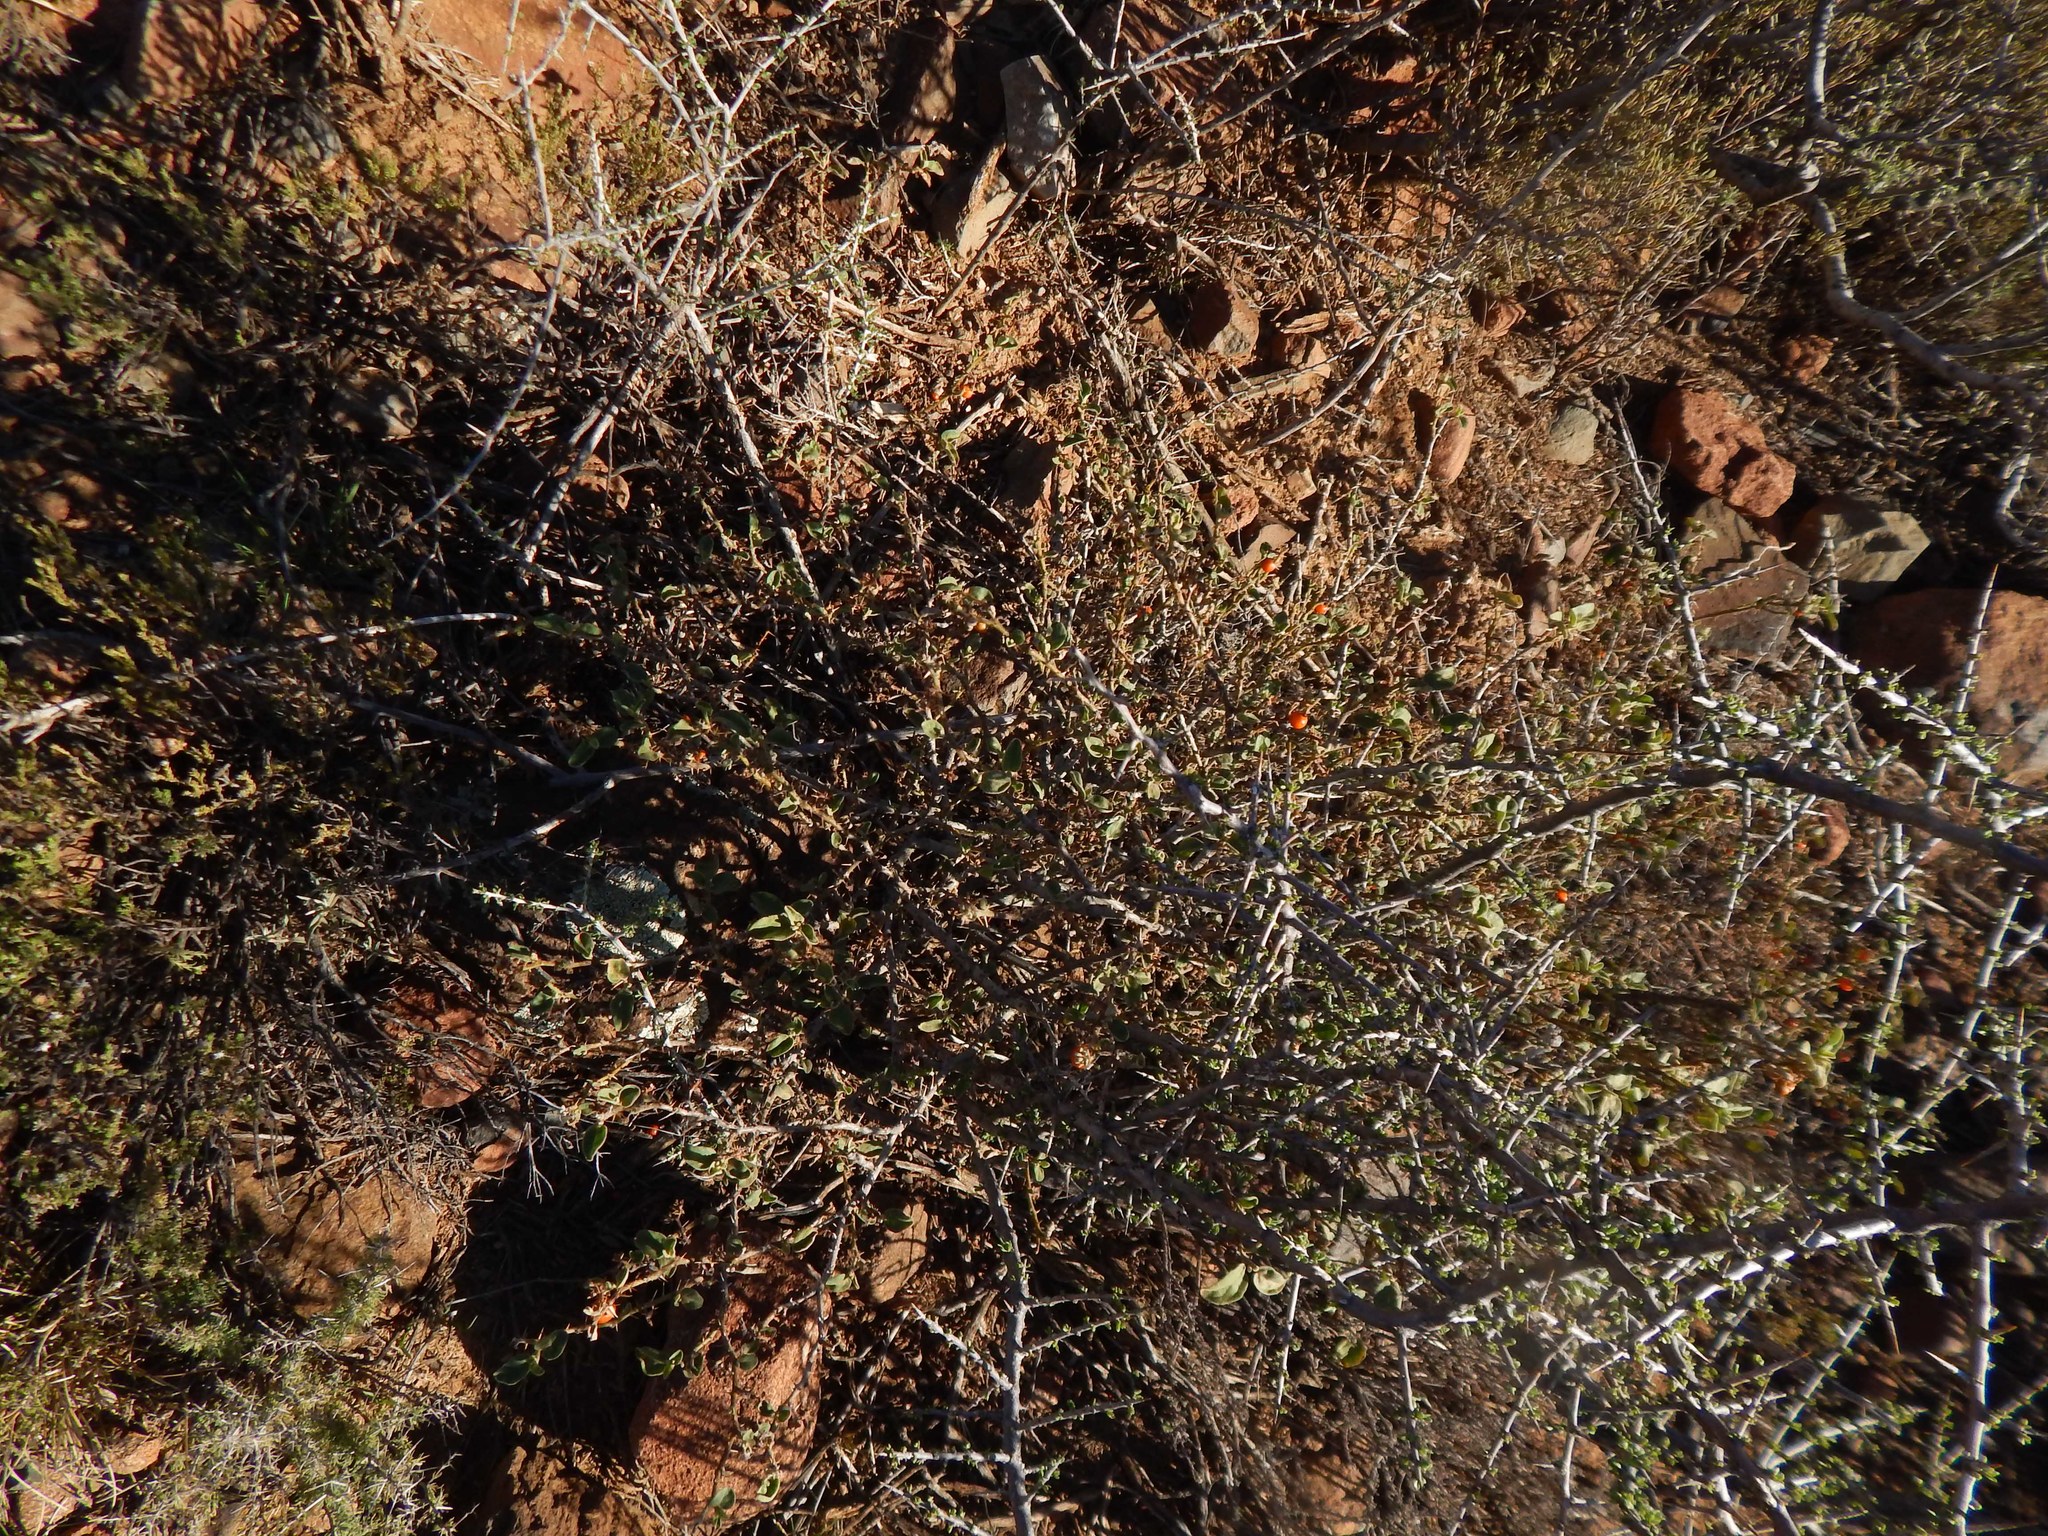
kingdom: Plantae
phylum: Tracheophyta
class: Magnoliopsida
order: Solanales
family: Solanaceae
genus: Solanum
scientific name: Solanum tomentosum
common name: Wild aubergine
